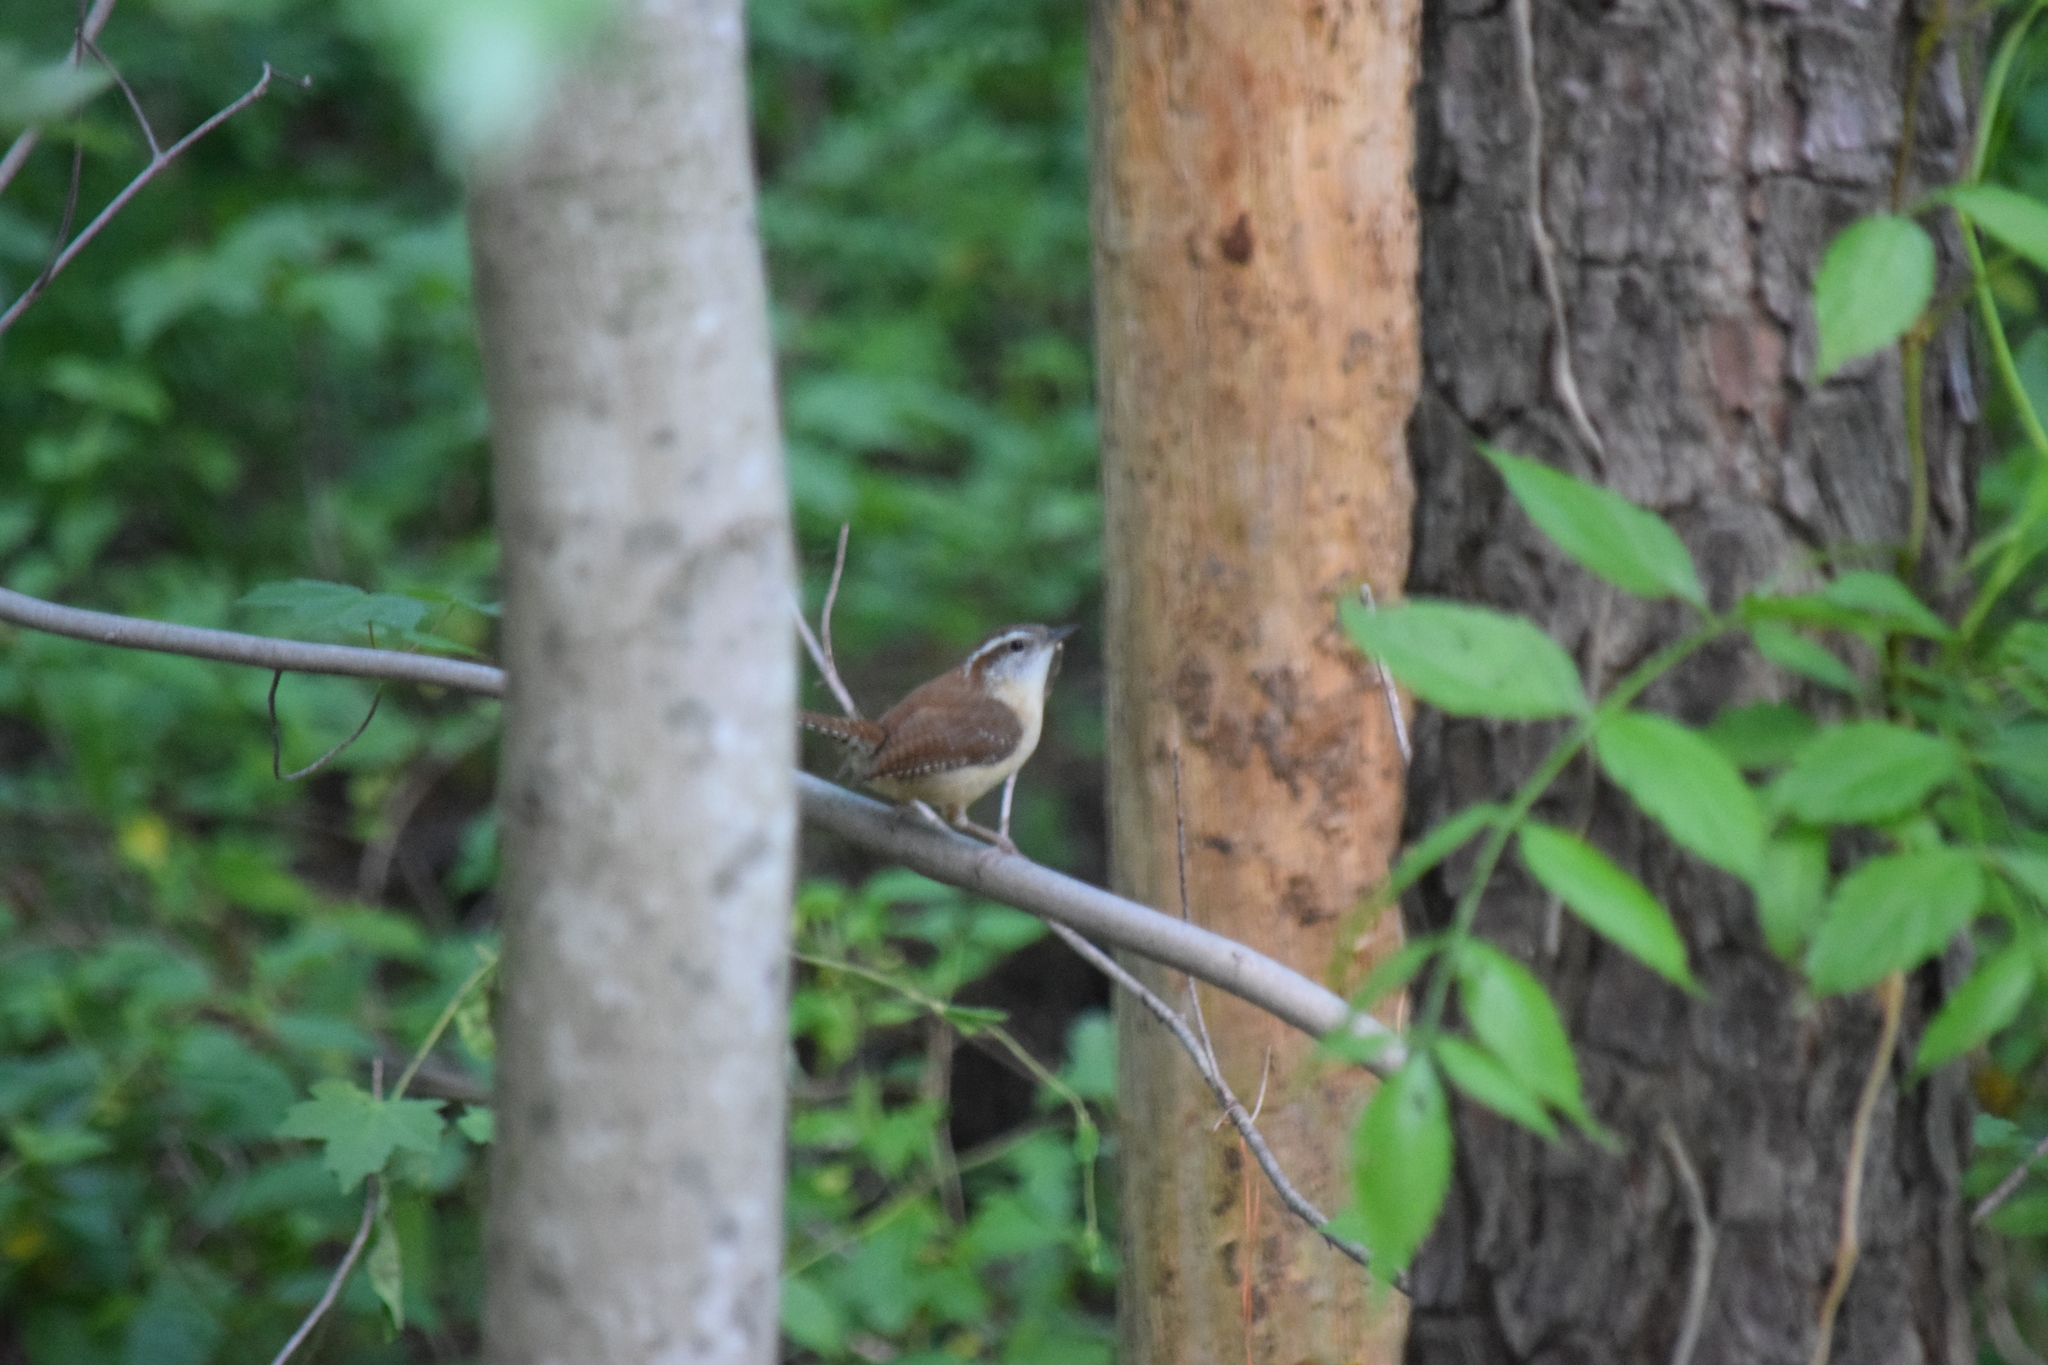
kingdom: Animalia
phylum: Chordata
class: Aves
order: Passeriformes
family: Troglodytidae
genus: Thryothorus
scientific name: Thryothorus ludovicianus
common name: Carolina wren
